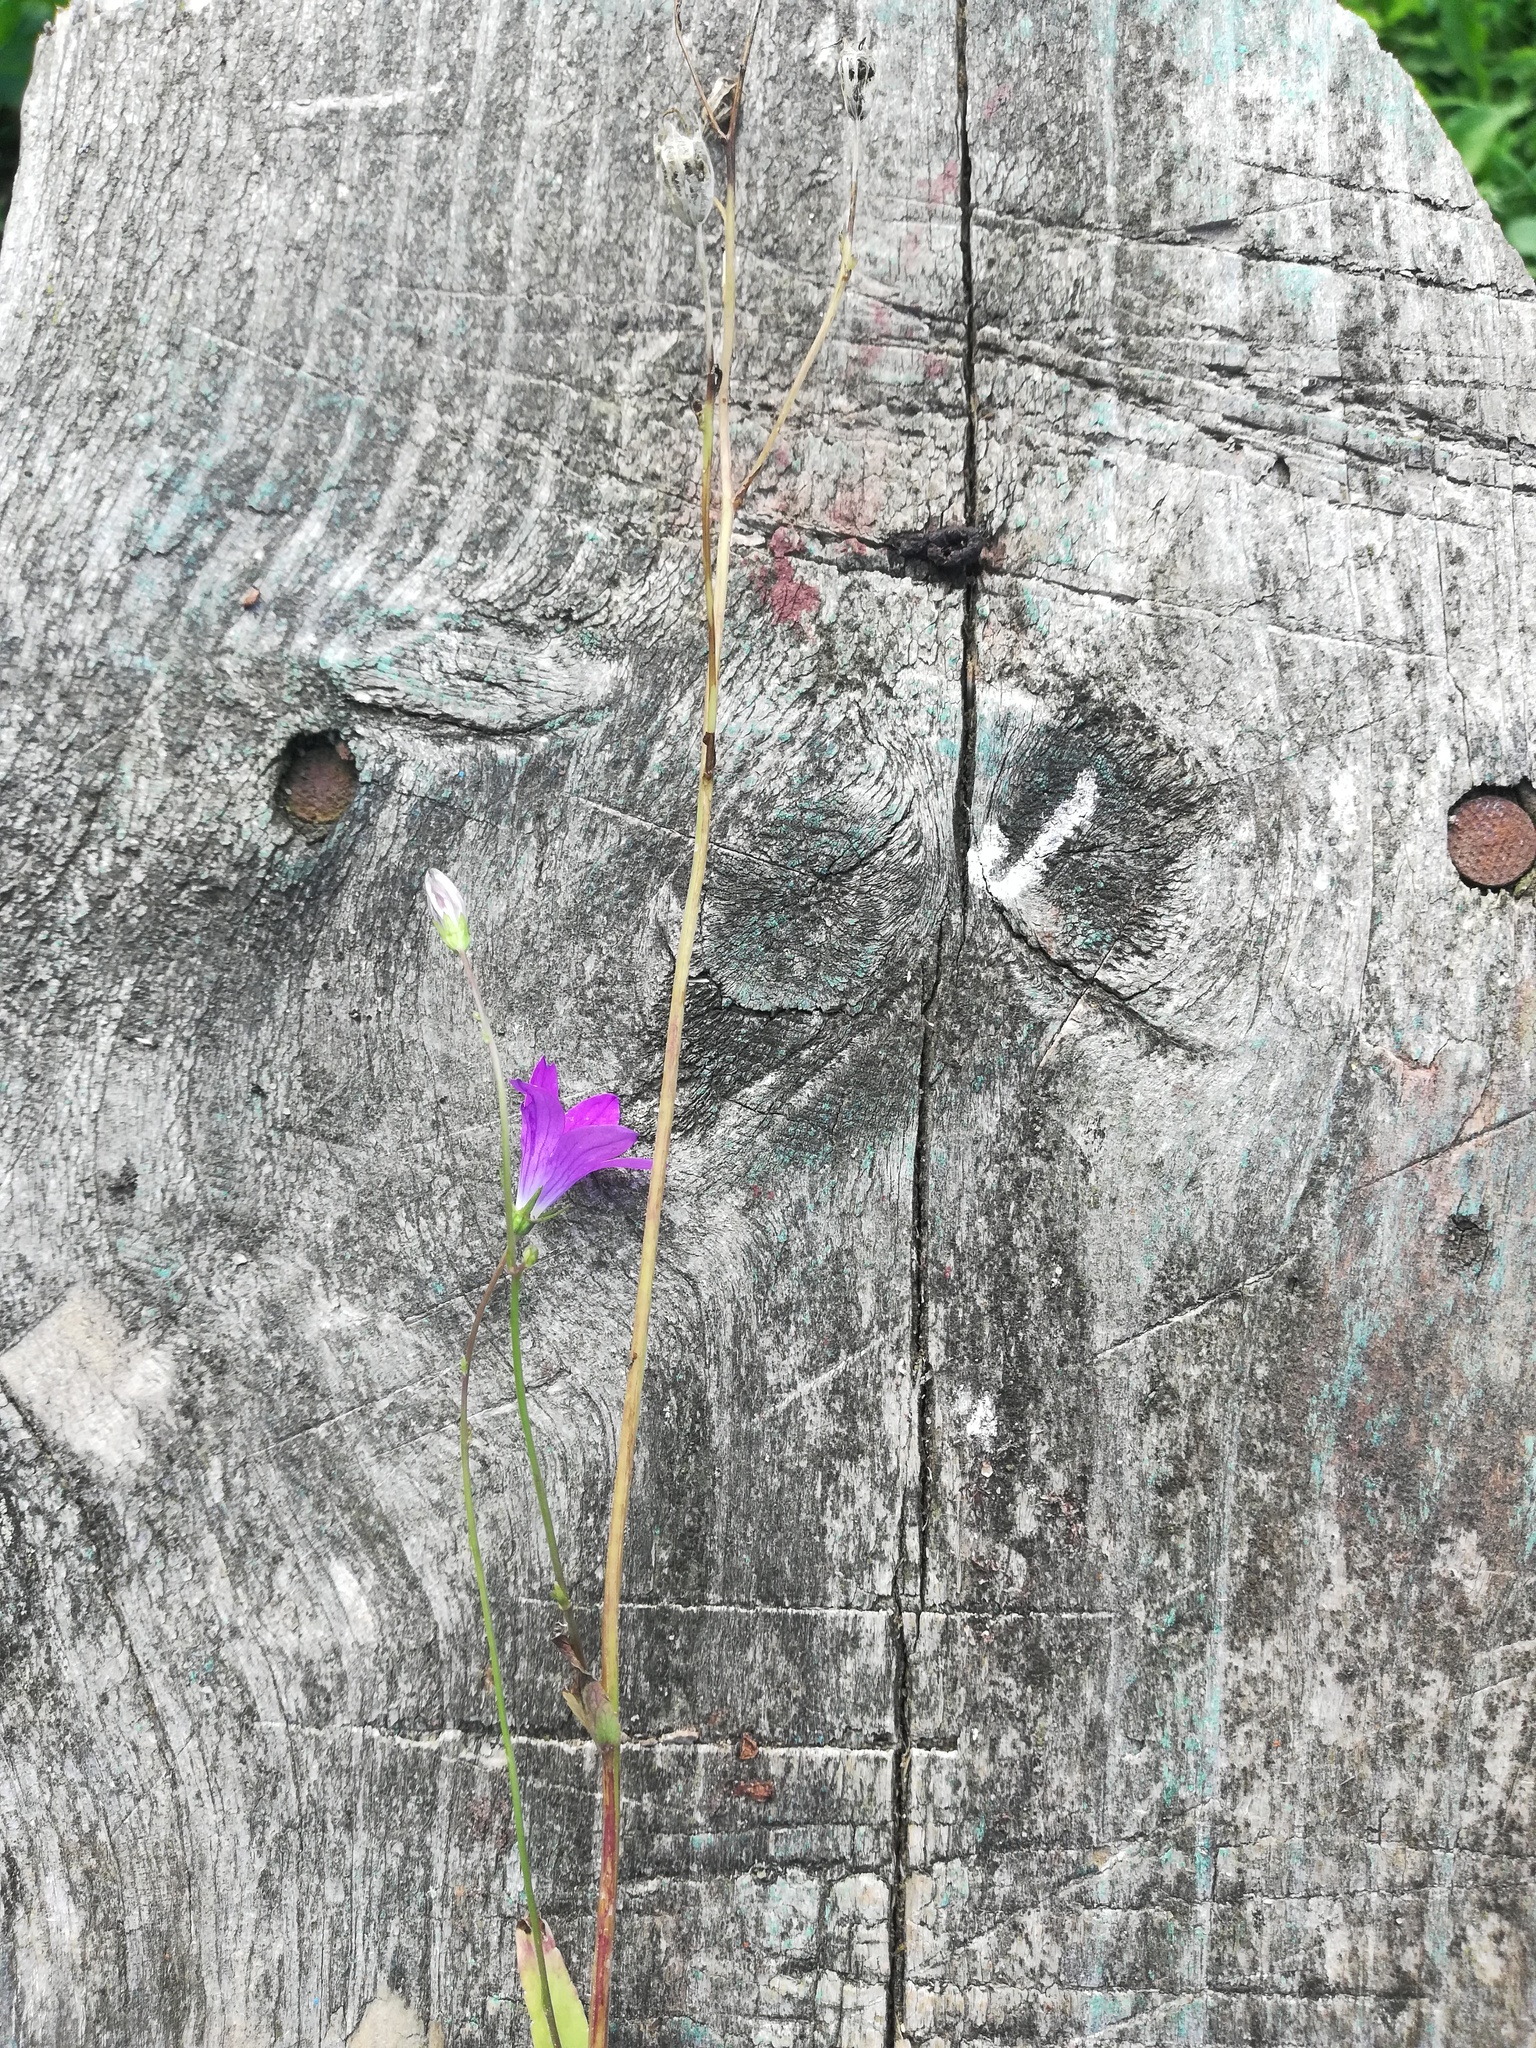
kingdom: Plantae
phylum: Tracheophyta
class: Magnoliopsida
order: Asterales
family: Campanulaceae
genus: Campanula
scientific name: Campanula patula
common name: Spreading bellflower
